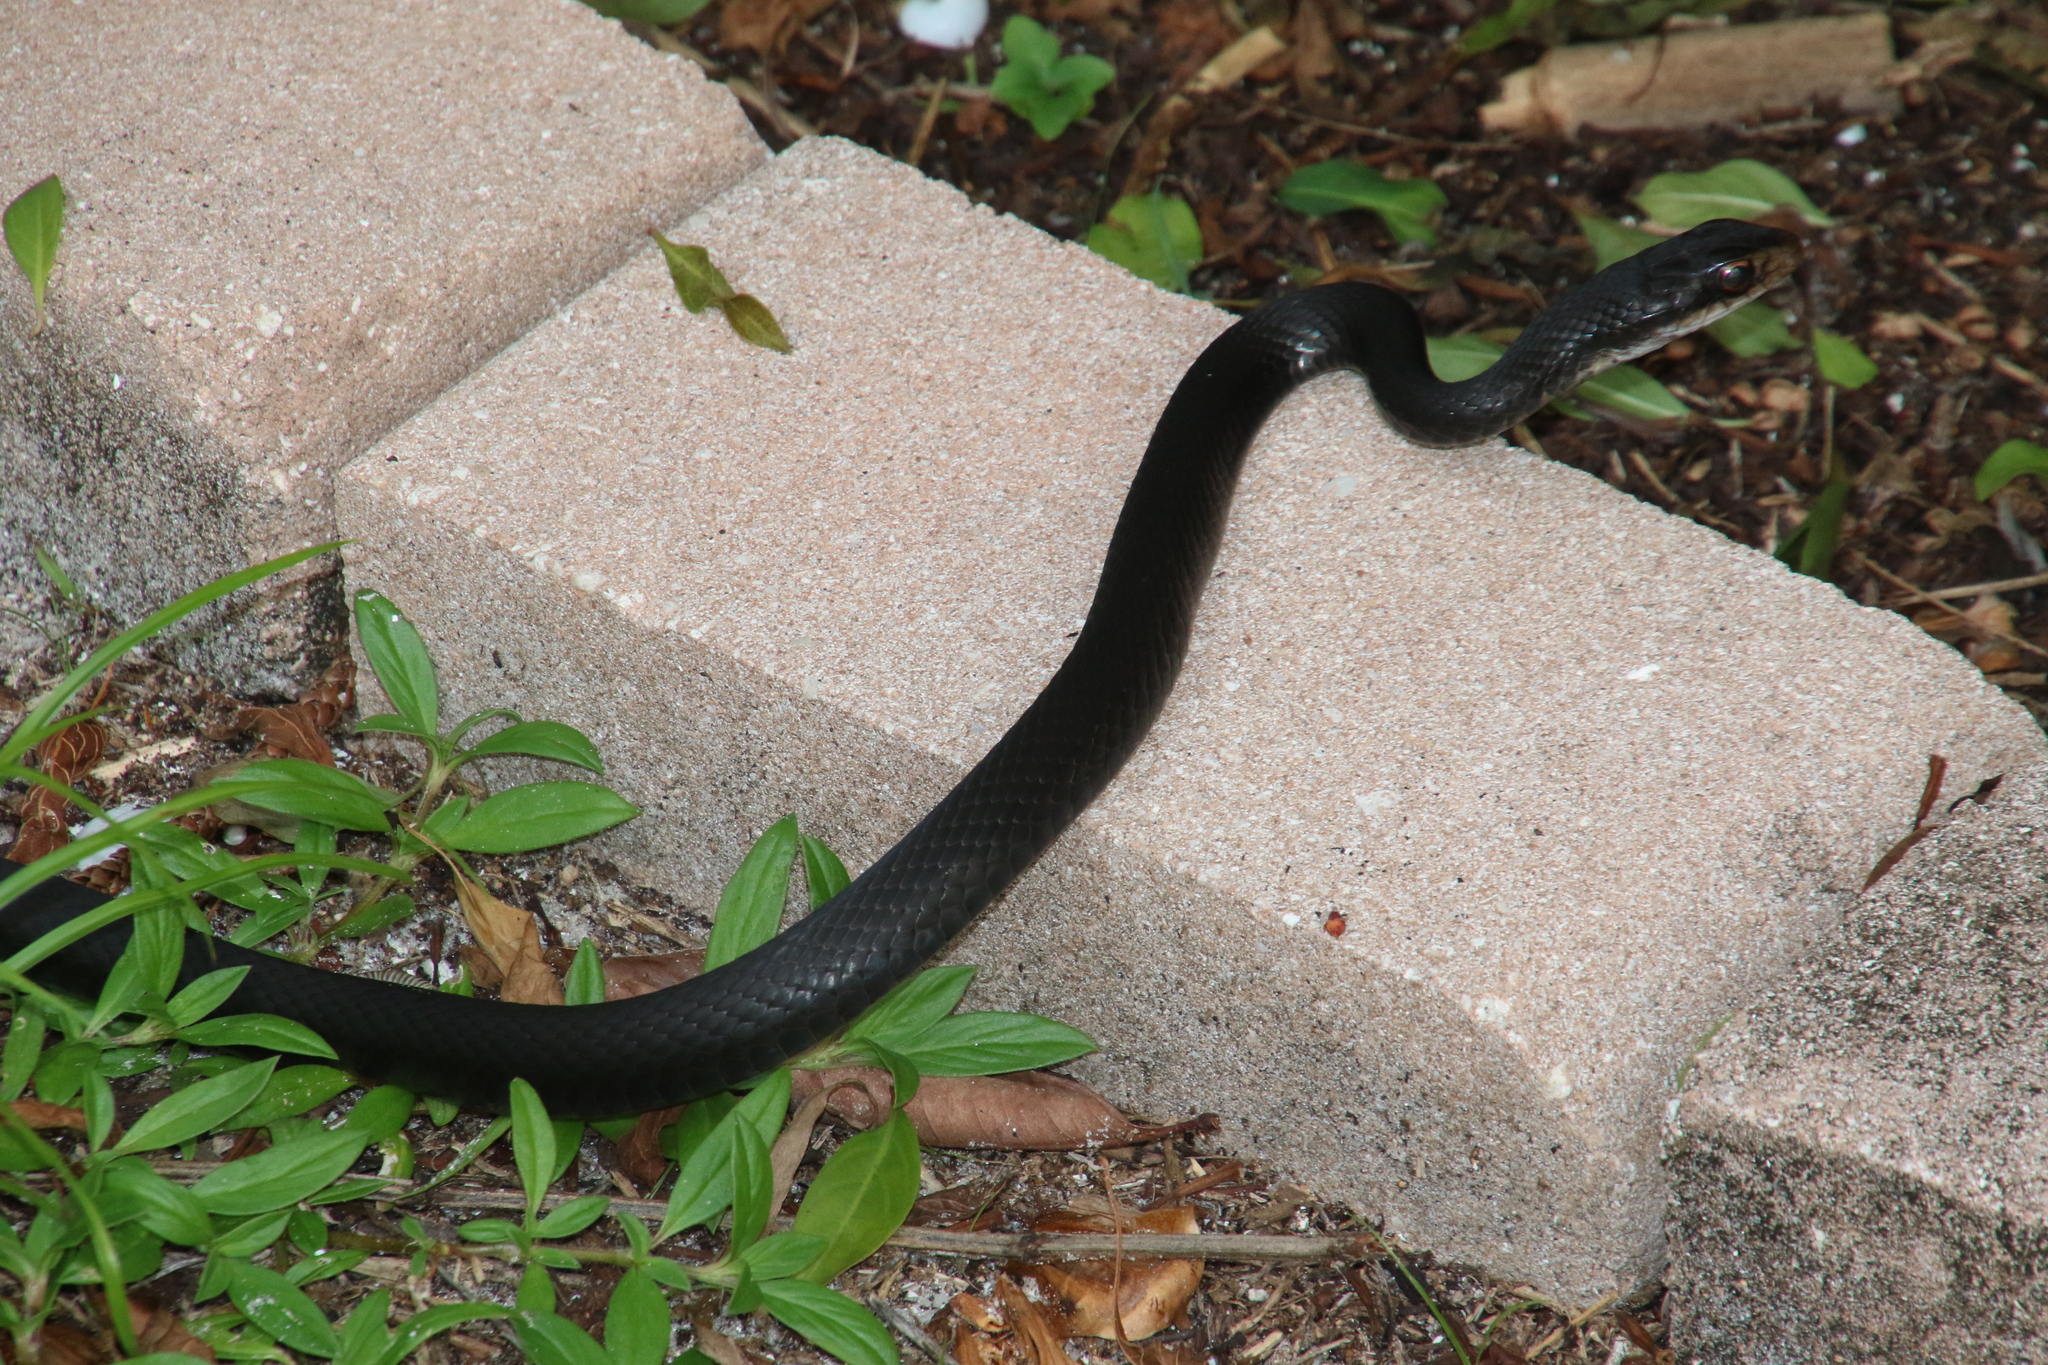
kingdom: Animalia
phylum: Chordata
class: Squamata
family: Colubridae
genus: Coluber
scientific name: Coluber constrictor
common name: Eastern racer
